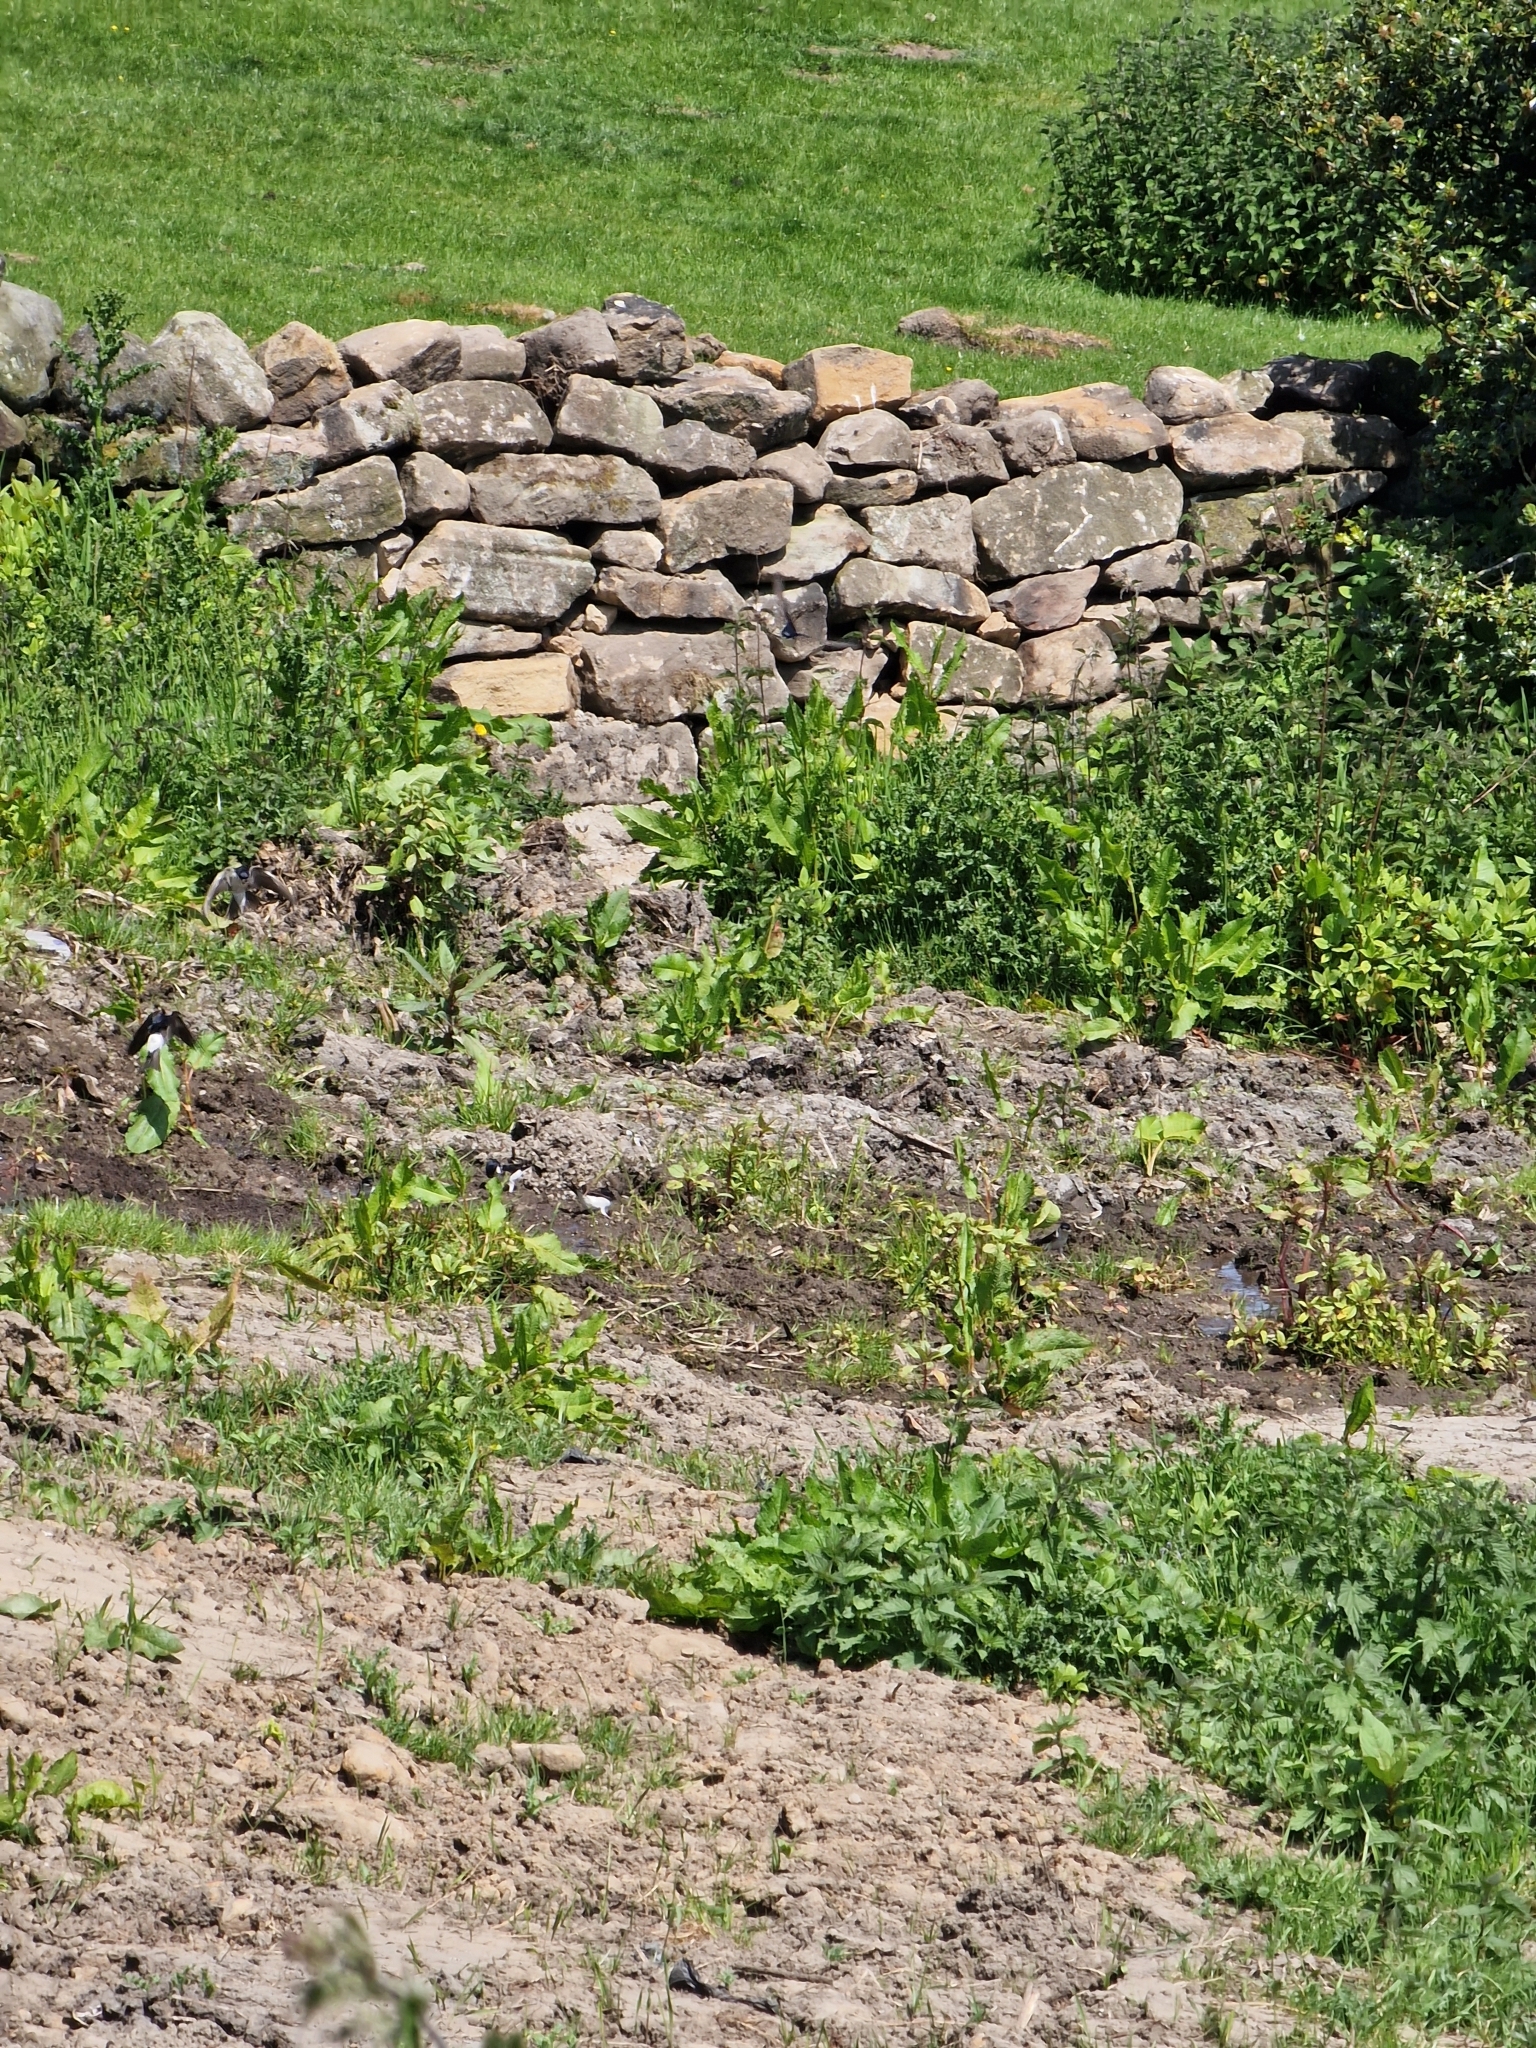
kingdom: Animalia
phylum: Chordata
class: Aves
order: Passeriformes
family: Hirundinidae
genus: Delichon
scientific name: Delichon urbicum
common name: Common house martin
